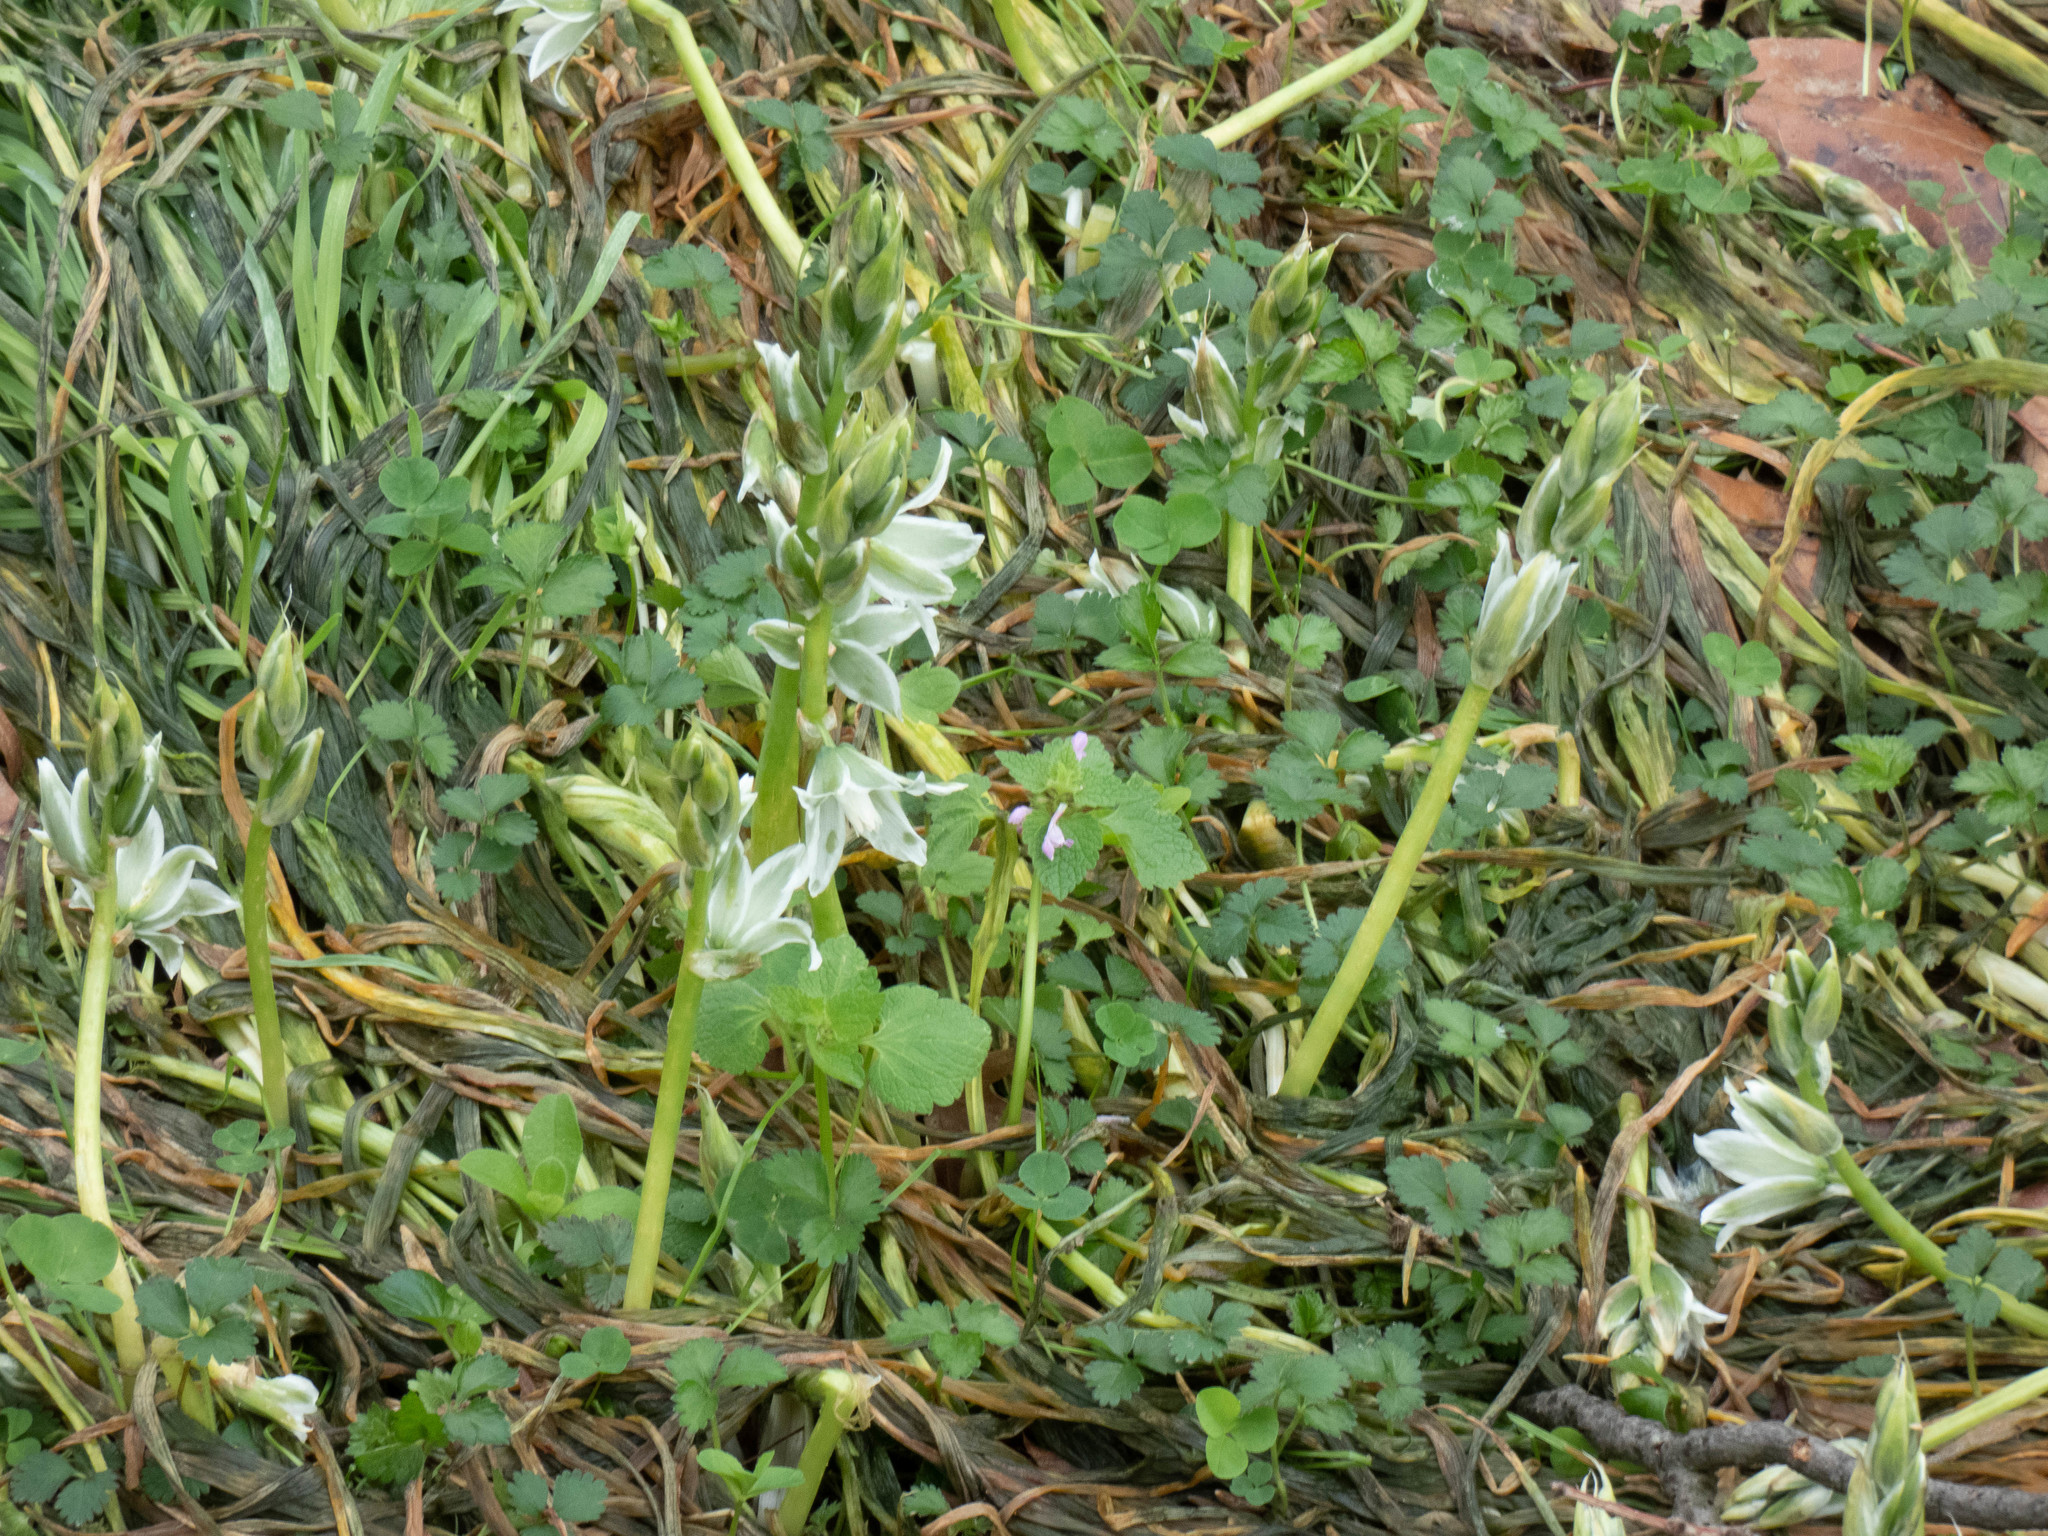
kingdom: Plantae
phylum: Tracheophyta
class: Liliopsida
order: Asparagales
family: Asparagaceae
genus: Ornithogalum
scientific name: Ornithogalum nutans
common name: Drooping star-of-bethlehem
